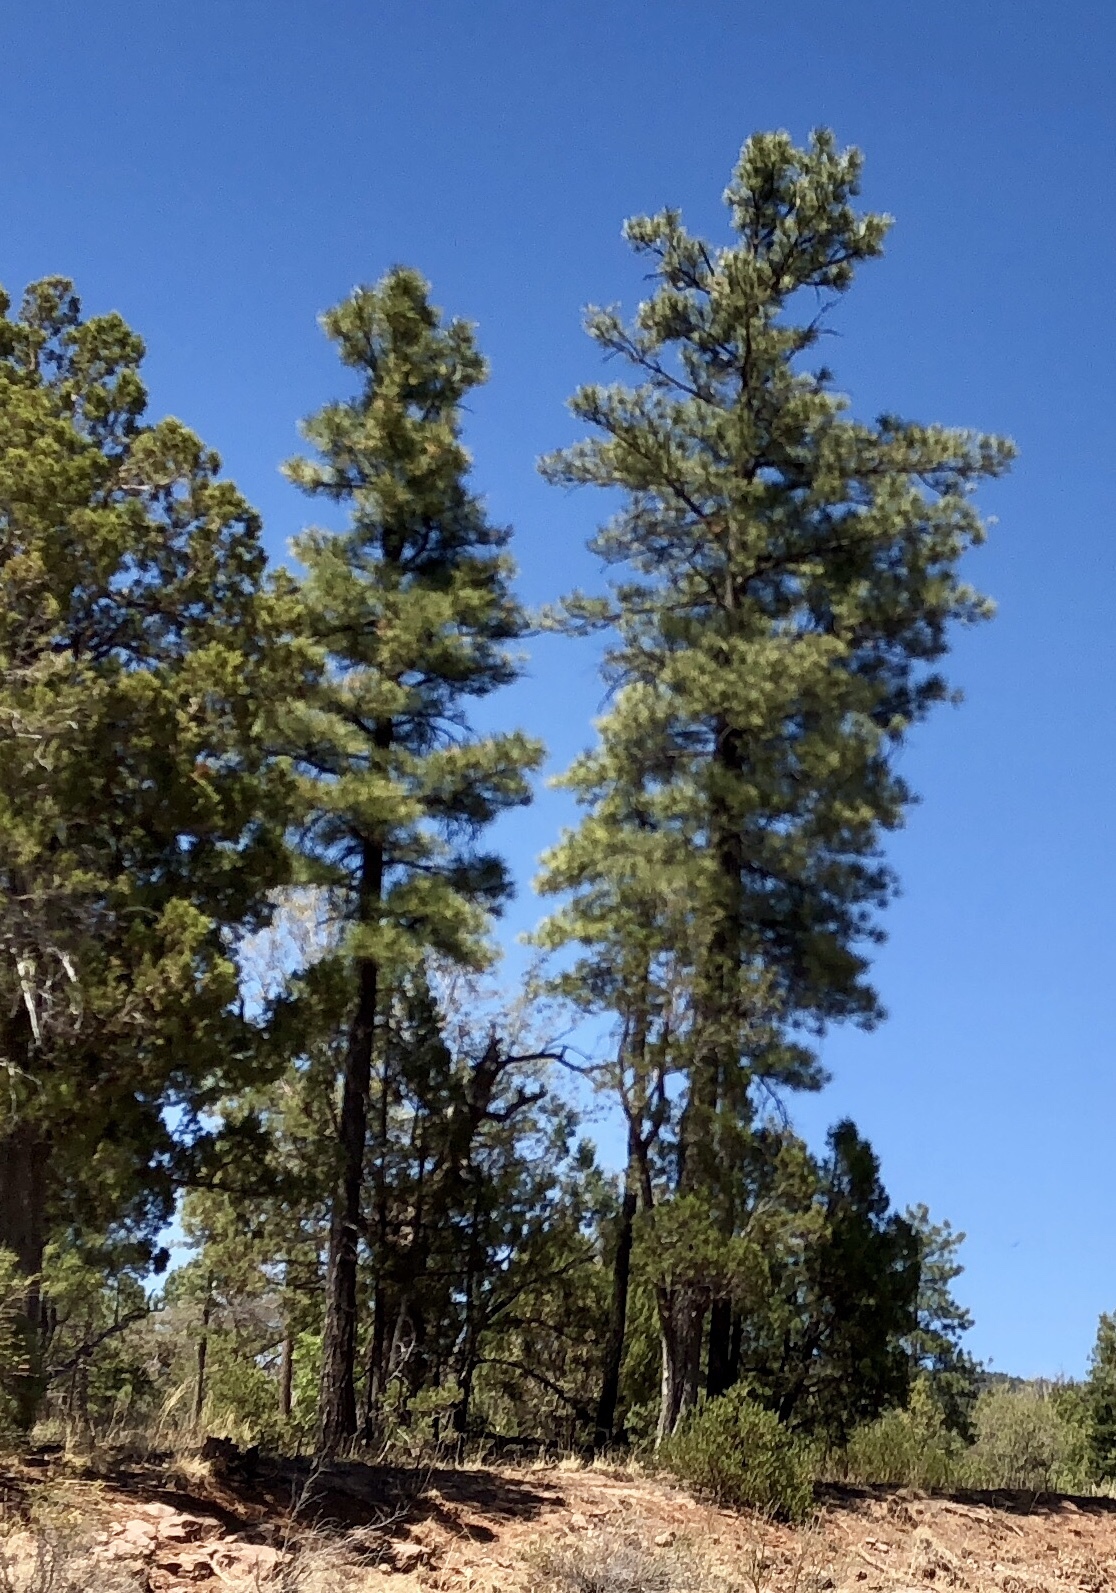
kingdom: Plantae
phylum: Tracheophyta
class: Pinopsida
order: Pinales
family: Pinaceae
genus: Pinus
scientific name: Pinus ponderosa
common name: Western yellow-pine
